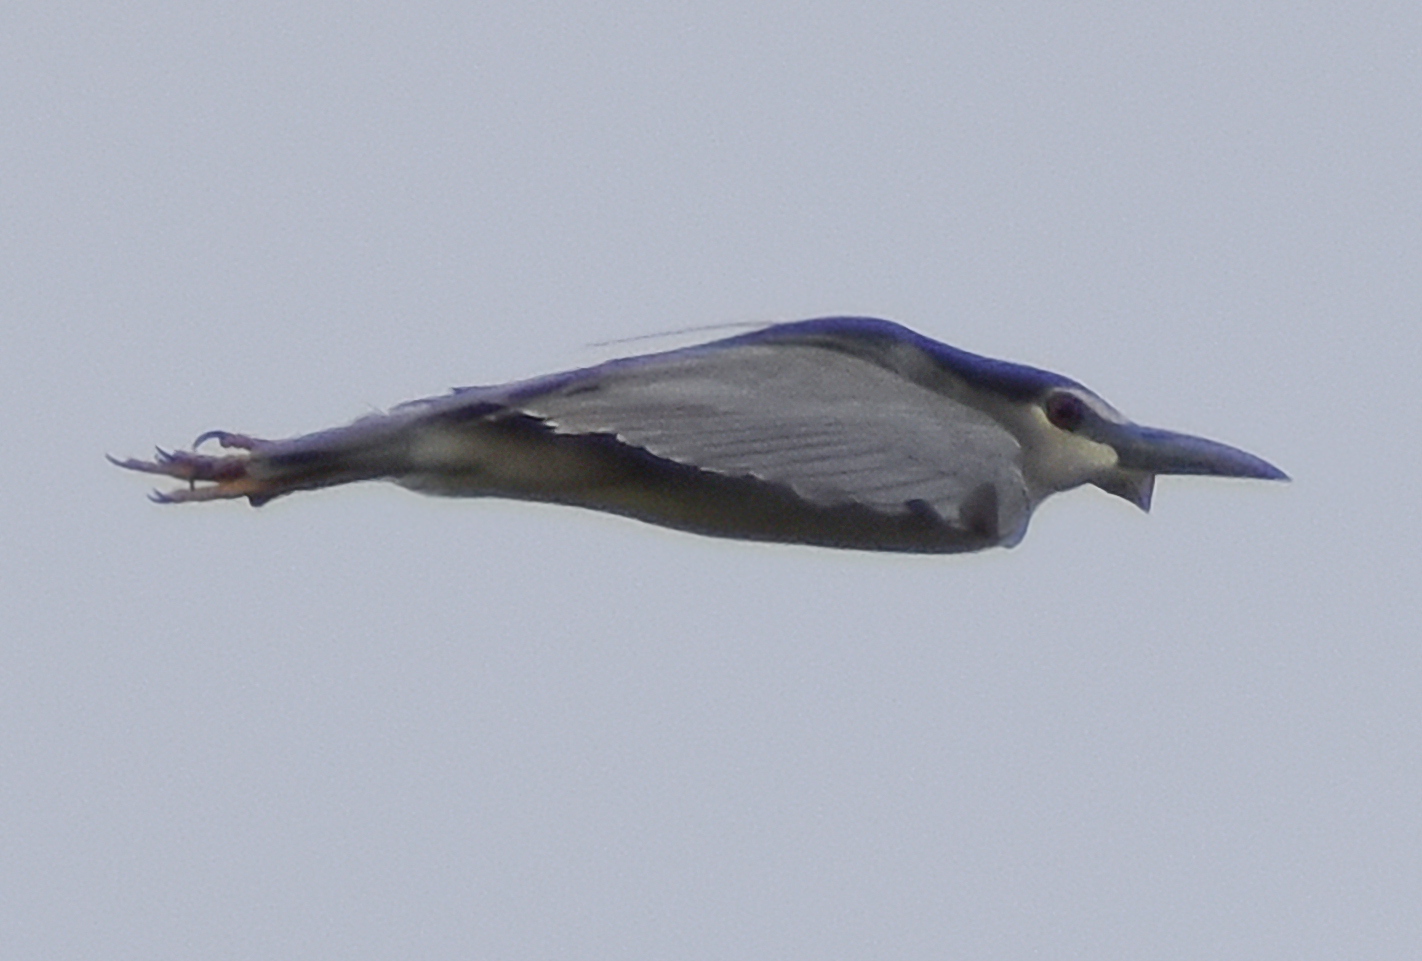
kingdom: Animalia
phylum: Chordata
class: Aves
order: Pelecaniformes
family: Ardeidae
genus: Nycticorax
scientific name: Nycticorax nycticorax
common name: Black-crowned night heron
